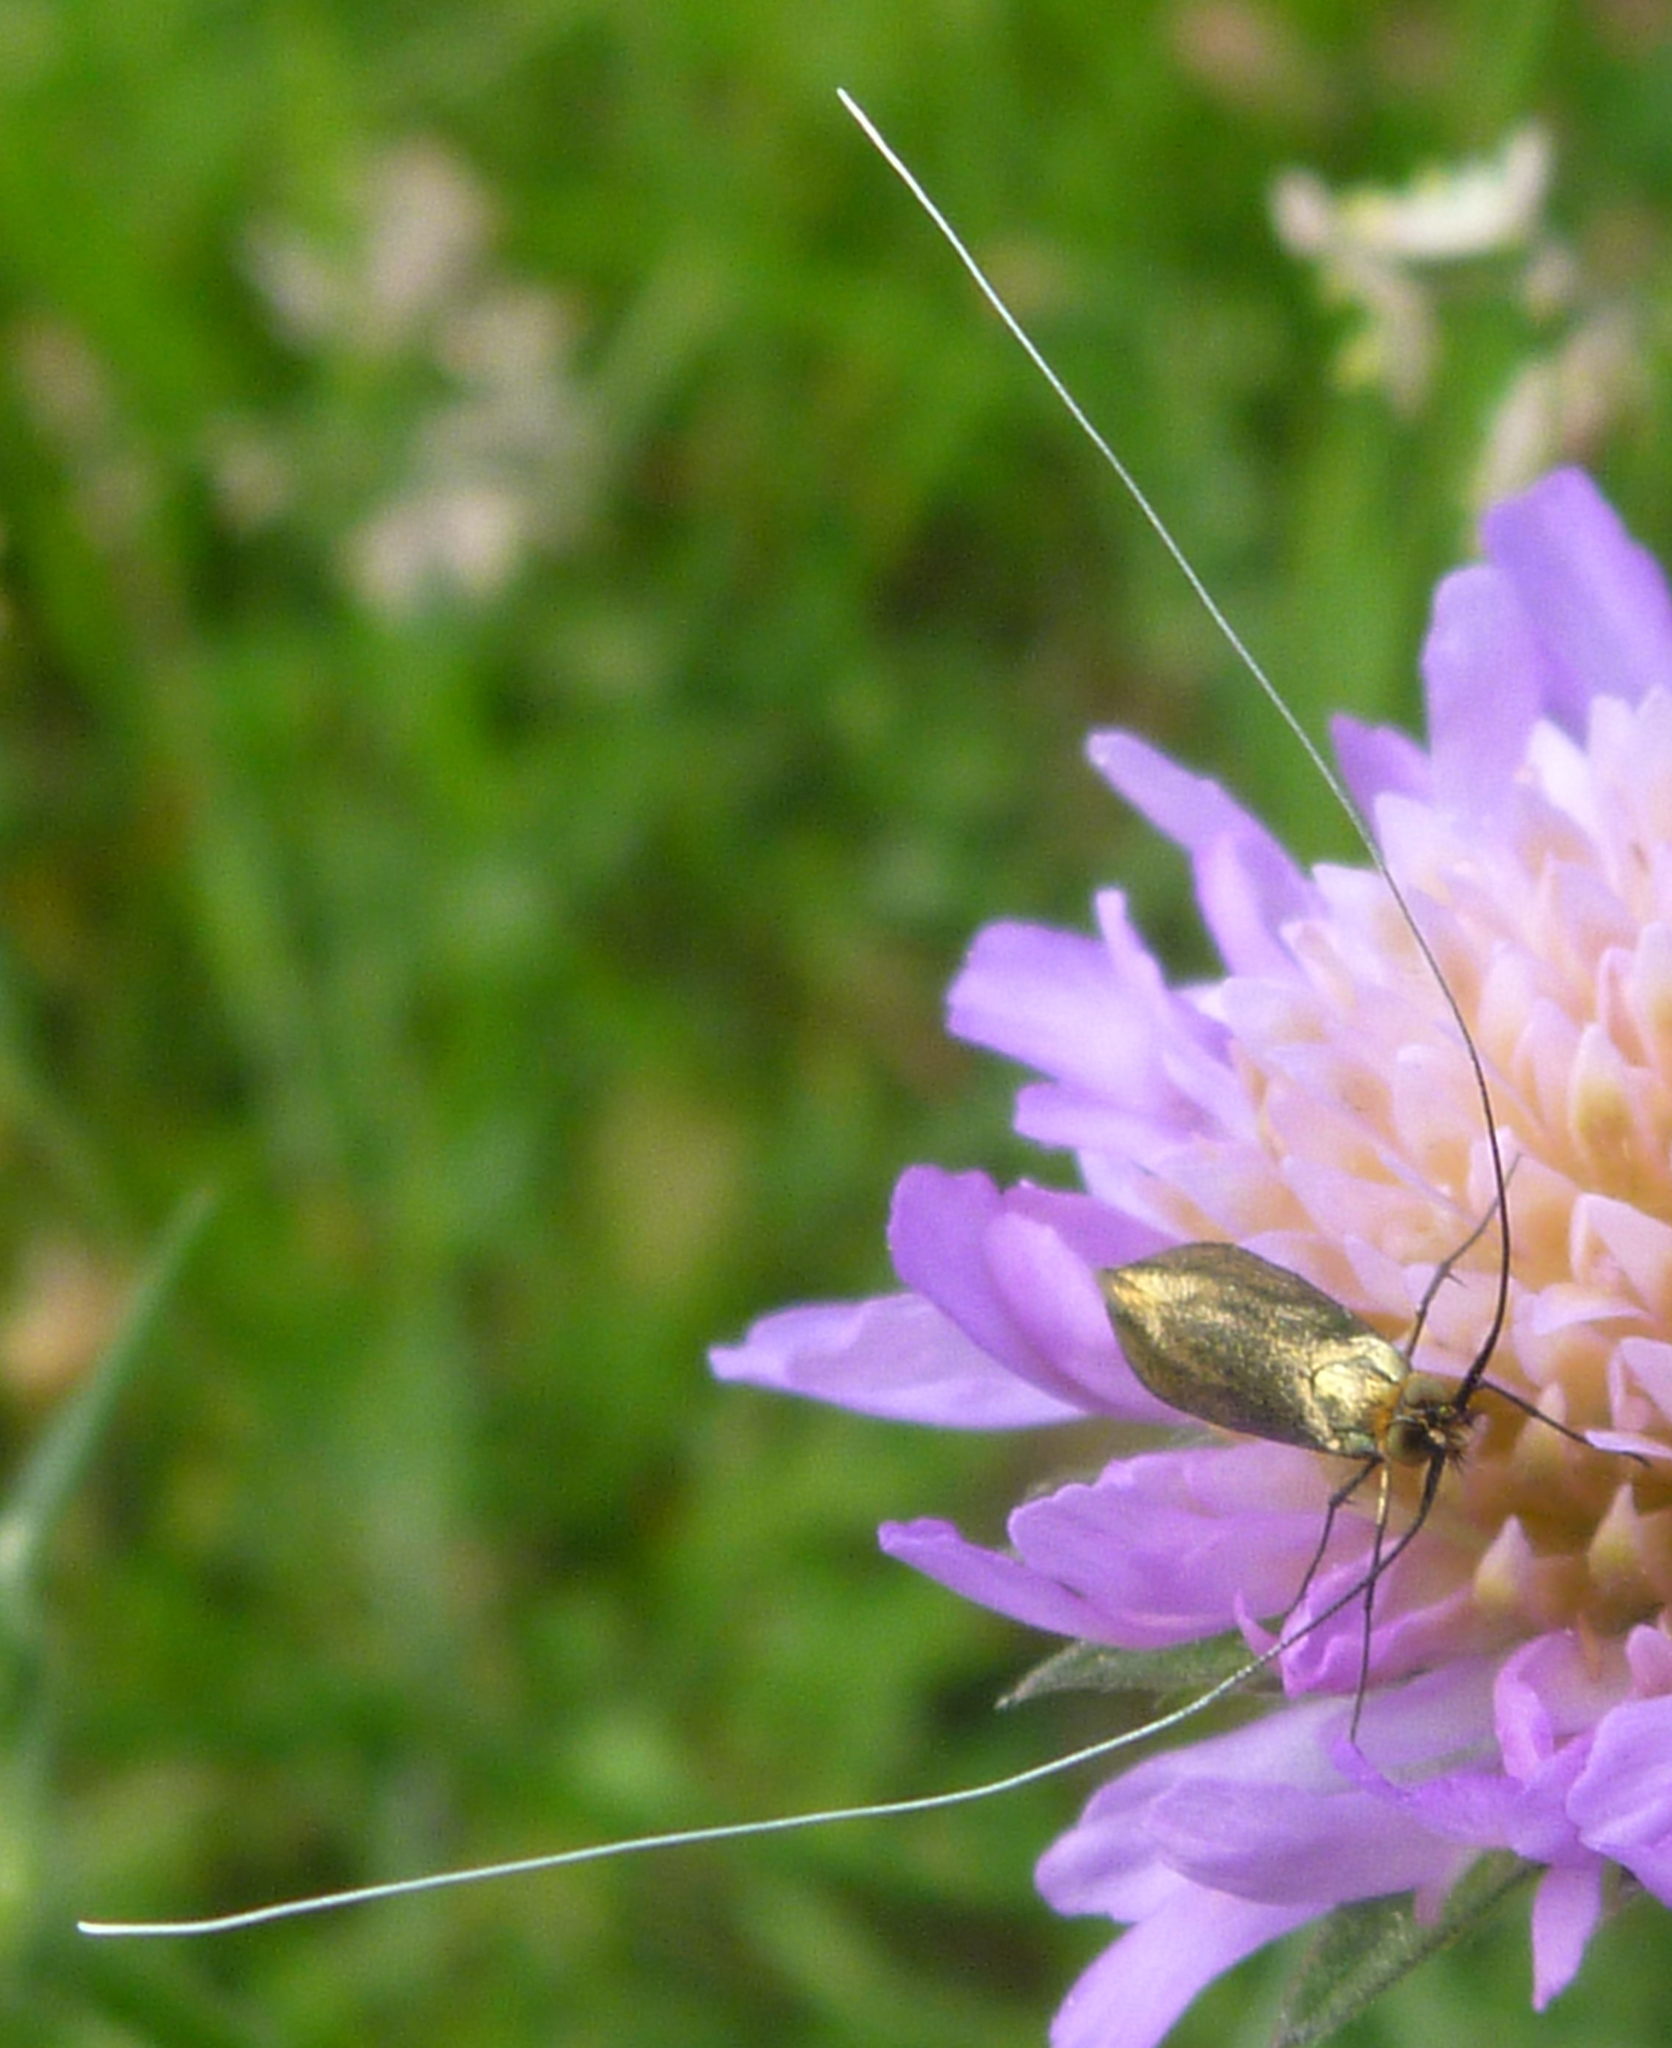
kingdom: Animalia
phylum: Arthropoda
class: Insecta
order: Lepidoptera
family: Adelidae
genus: Nemophora
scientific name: Nemophora metallica
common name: Brassy long-horn
